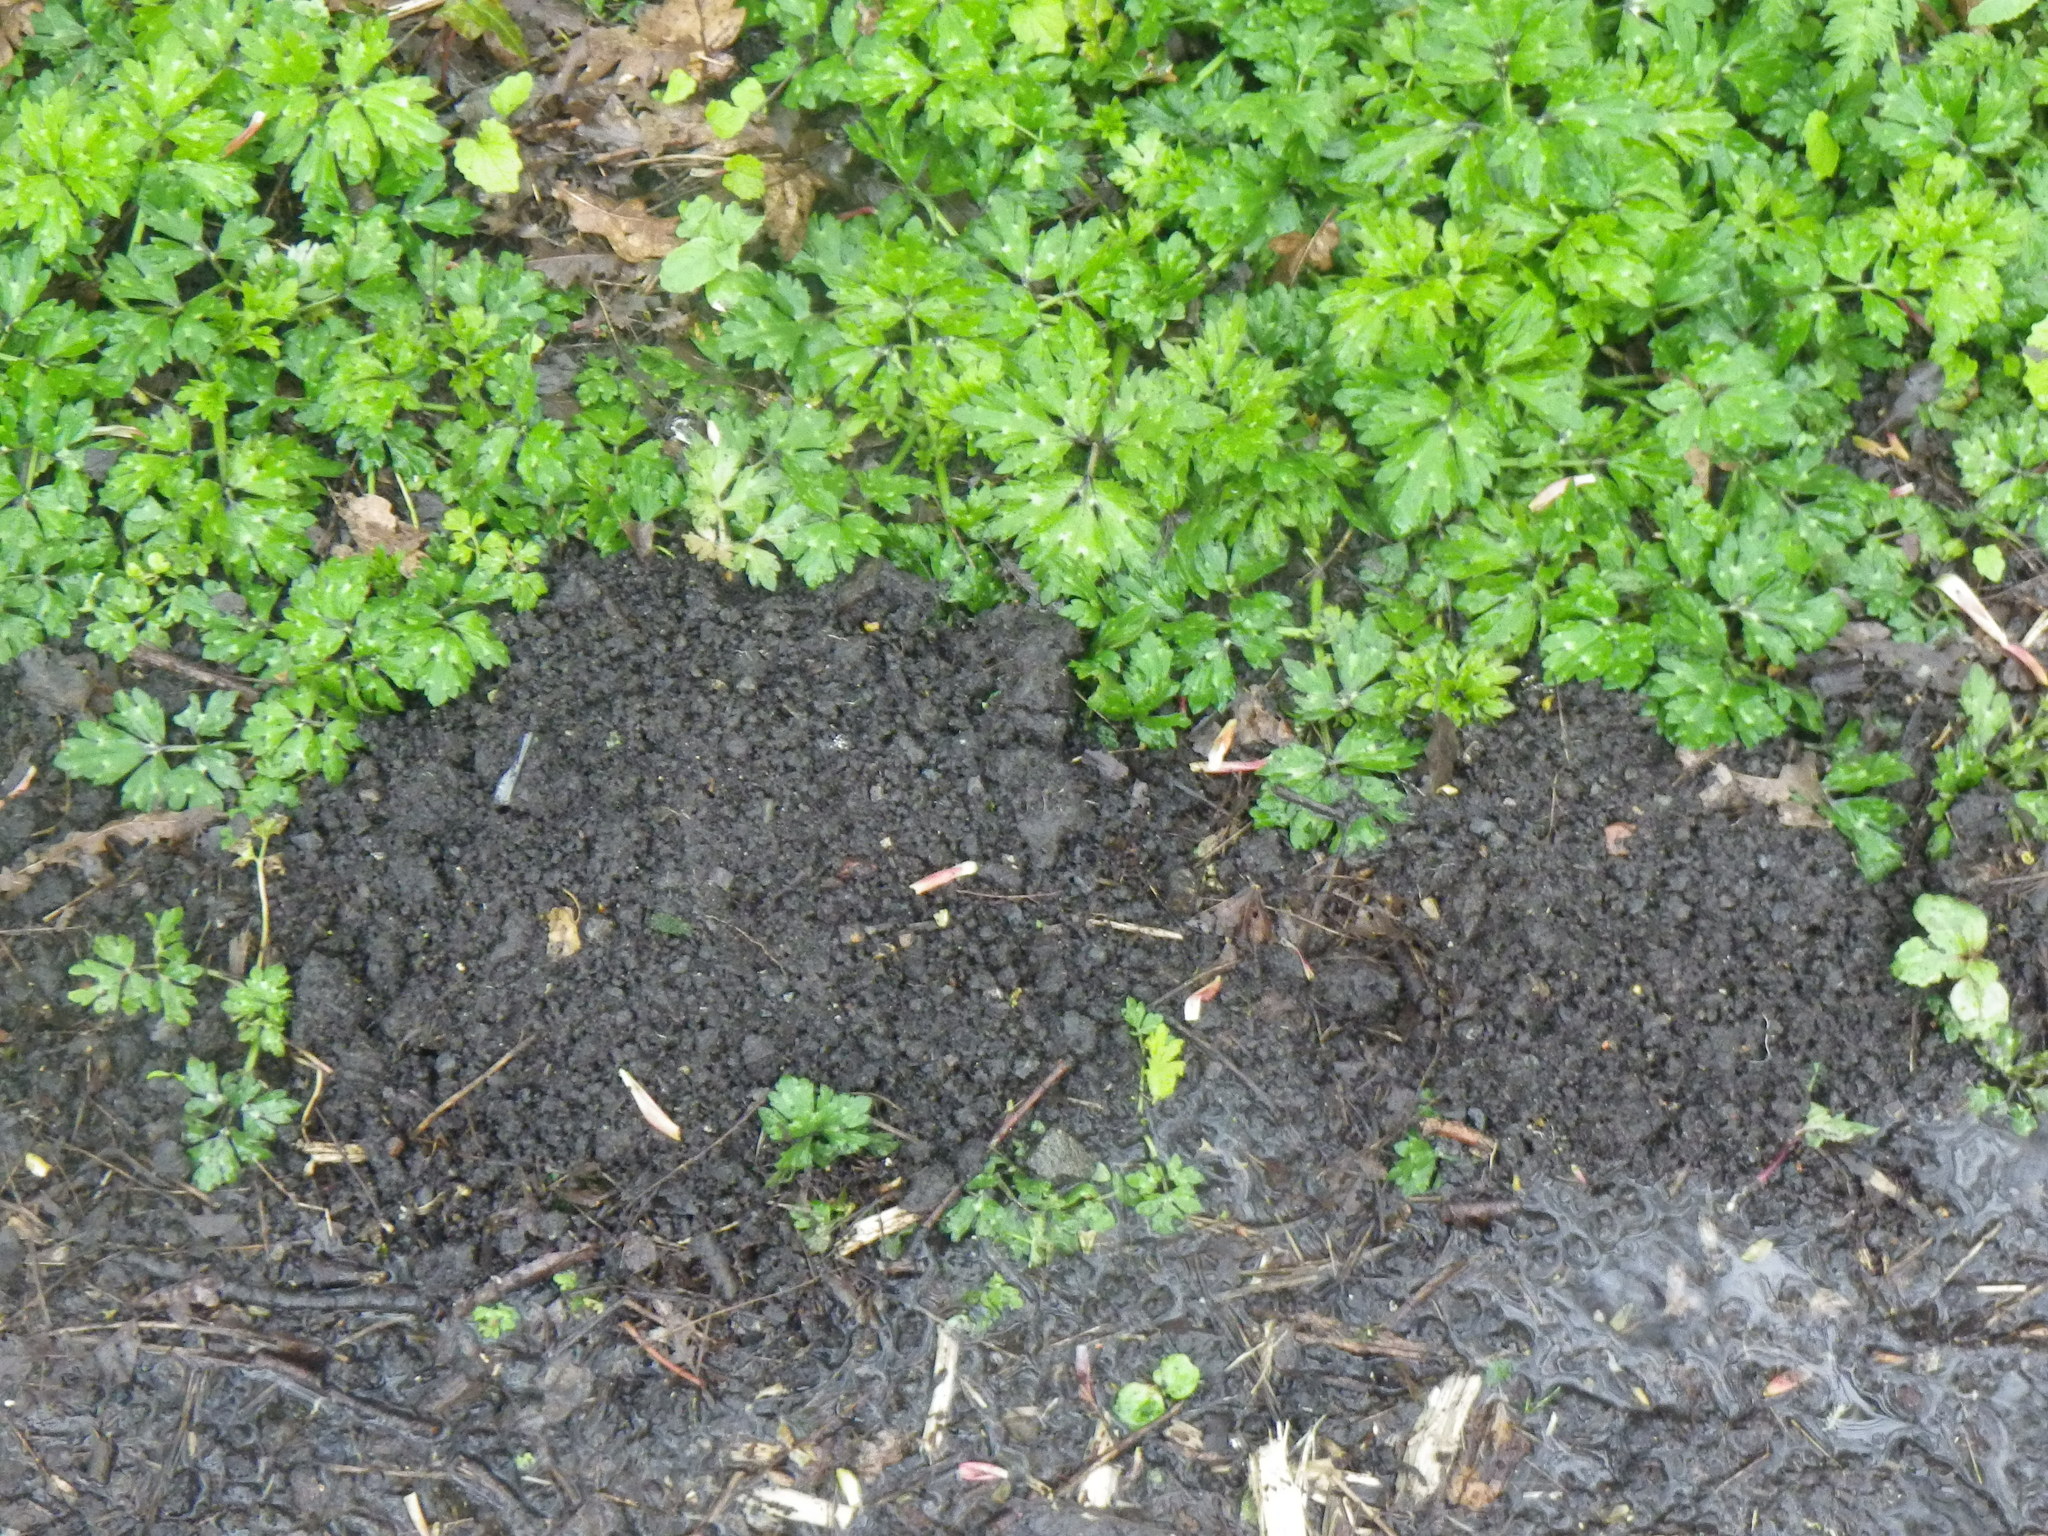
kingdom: Animalia
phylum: Chordata
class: Mammalia
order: Soricomorpha
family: Talpidae
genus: Talpa
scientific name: Talpa europaea
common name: European mole
